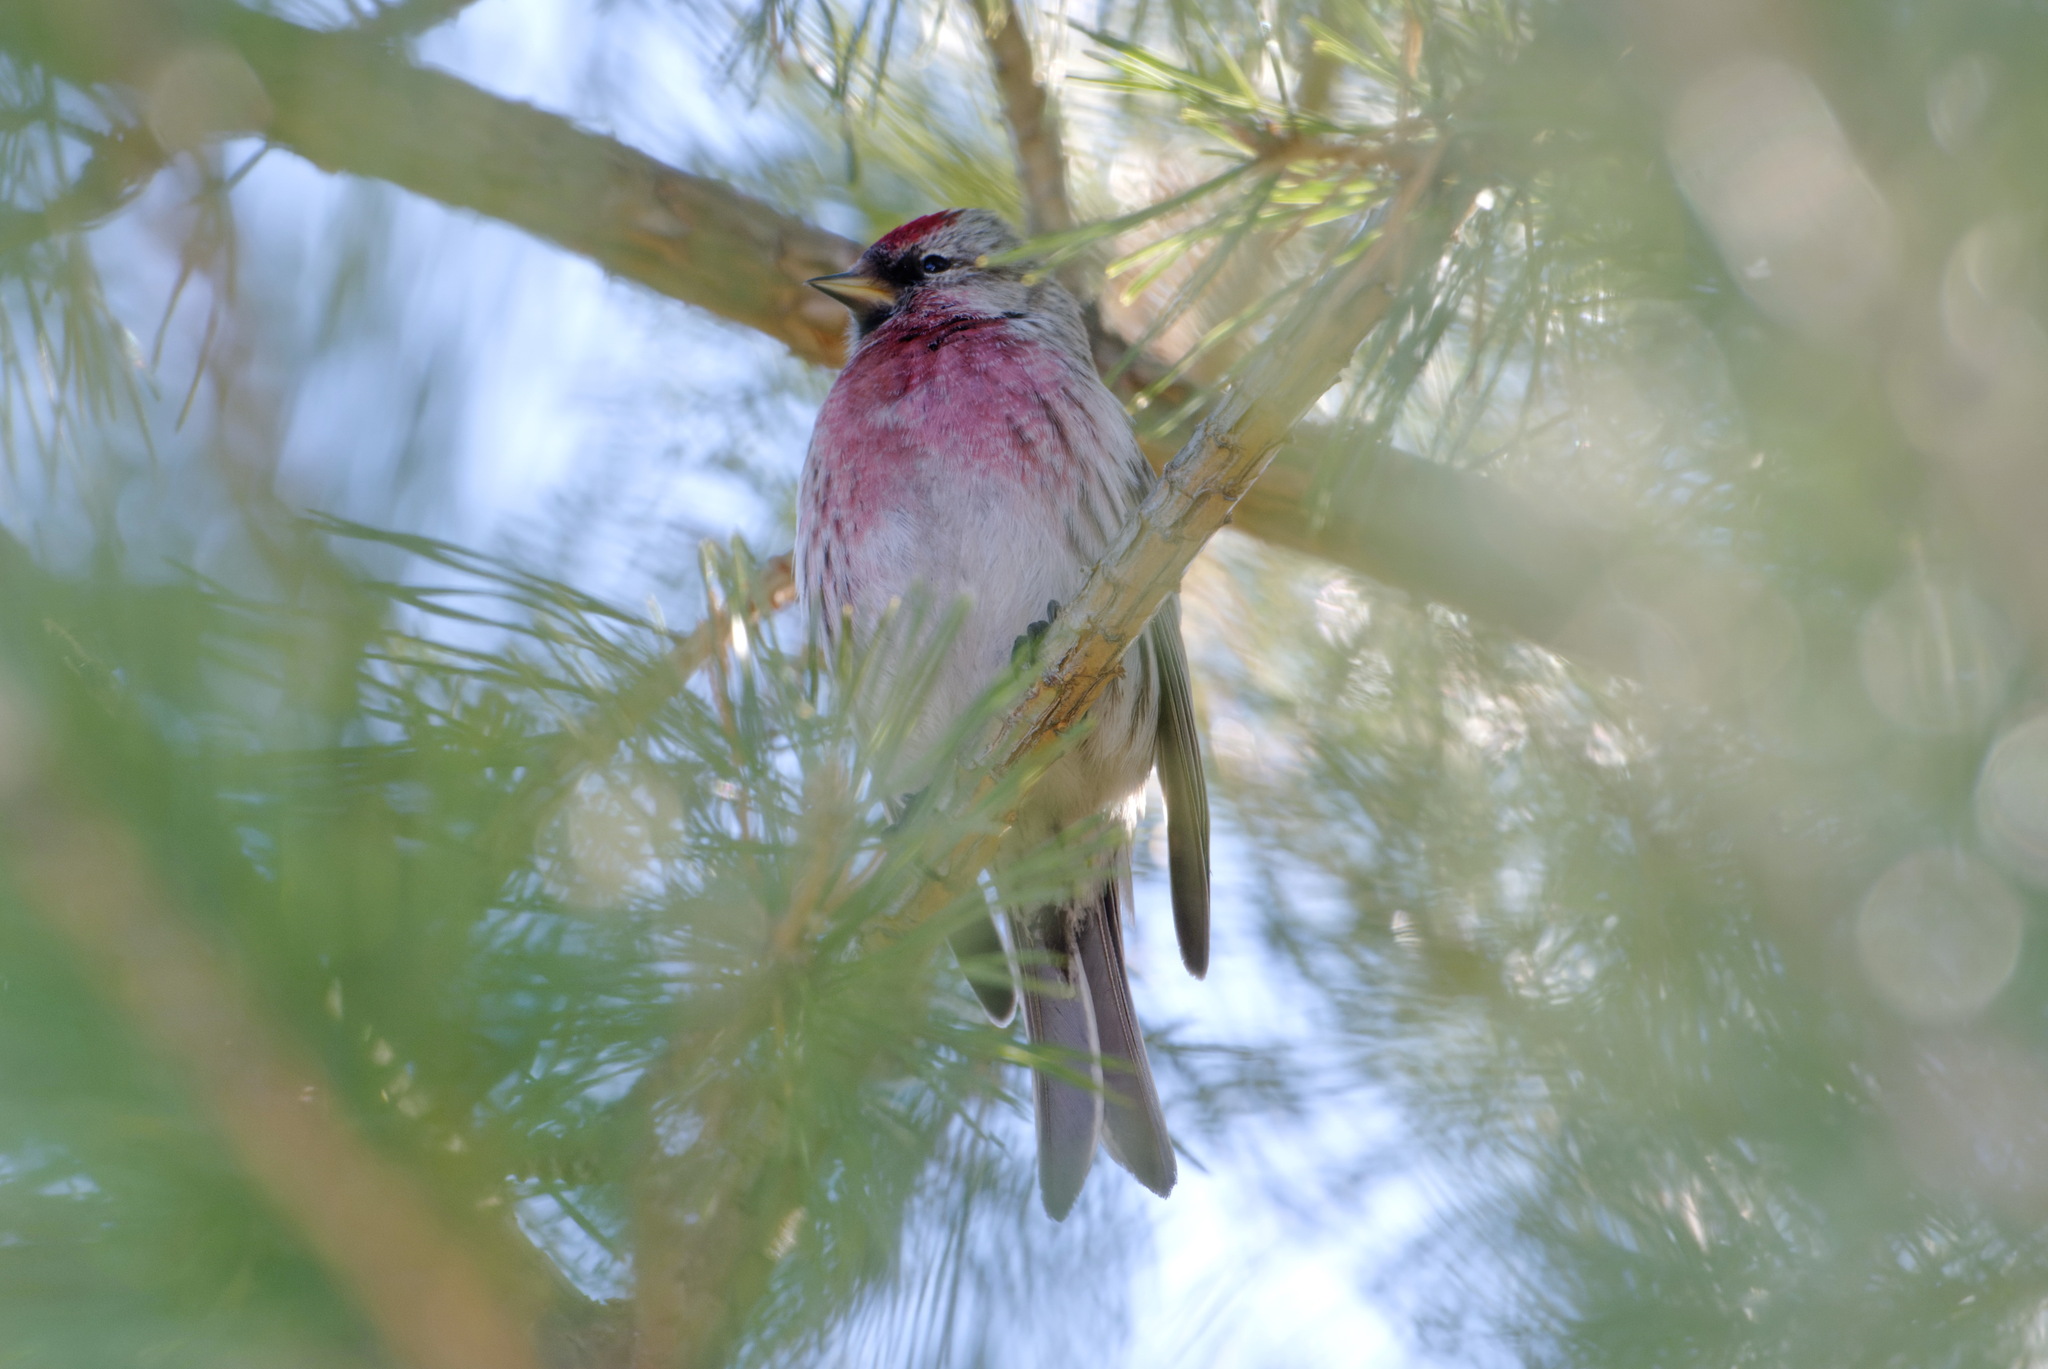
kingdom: Animalia
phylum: Chordata
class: Aves
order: Passeriformes
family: Fringillidae
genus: Acanthis
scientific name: Acanthis flammea
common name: Common redpoll
